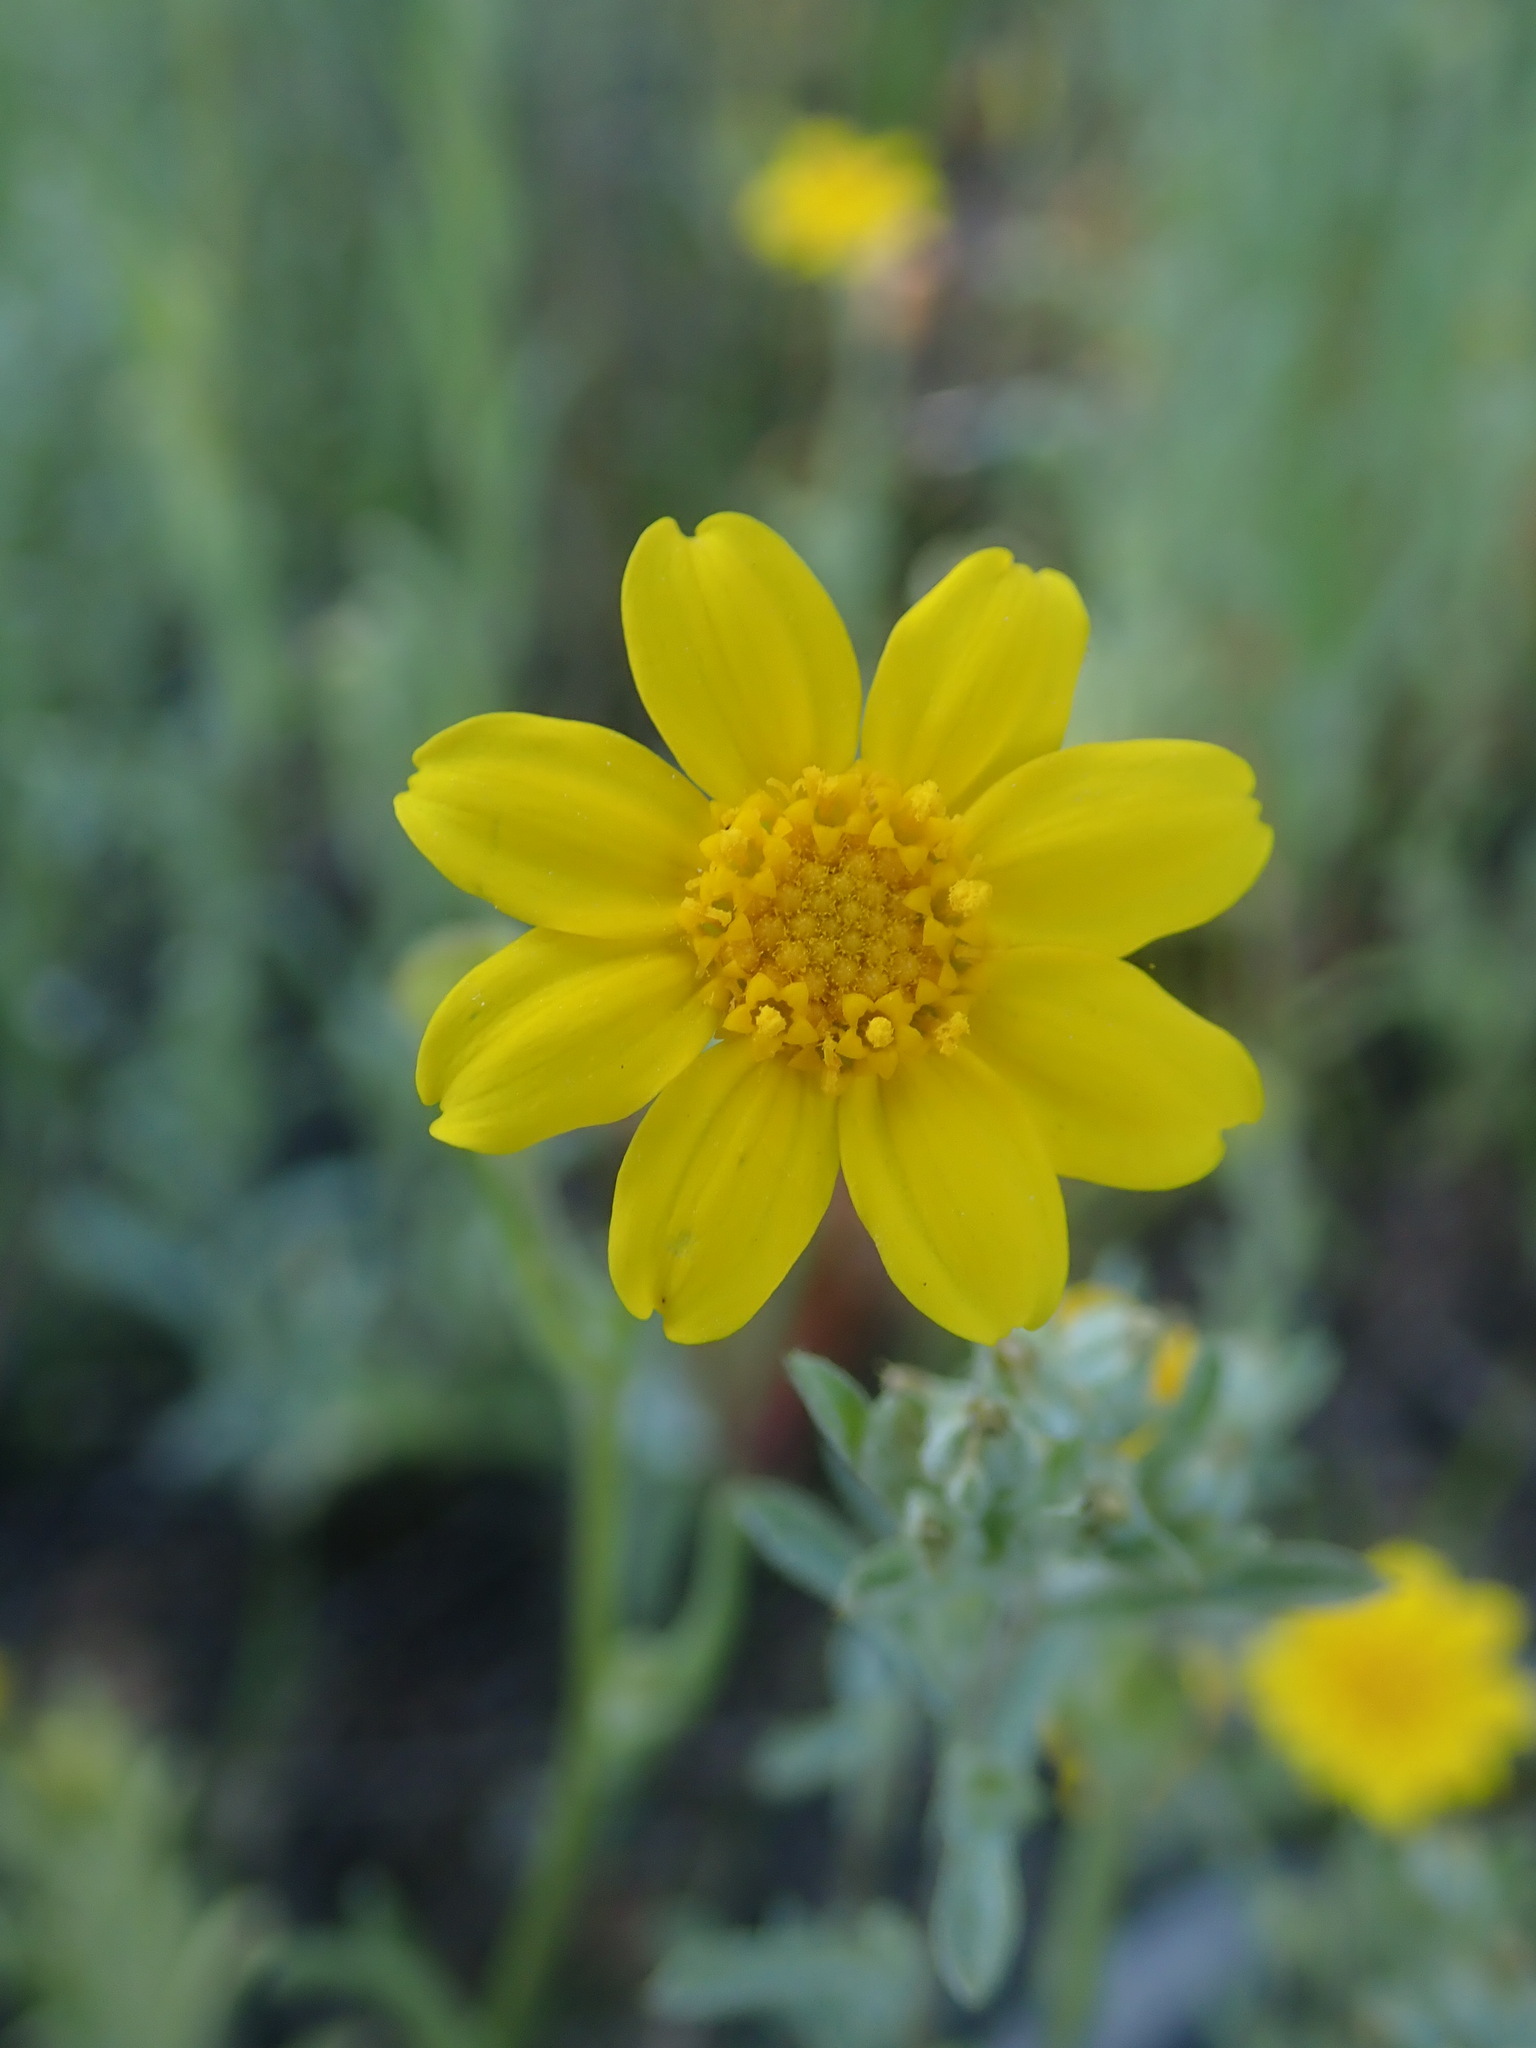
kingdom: Plantae
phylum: Tracheophyta
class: Magnoliopsida
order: Asterales
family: Asteraceae
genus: Monolopia
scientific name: Monolopia gracilens
